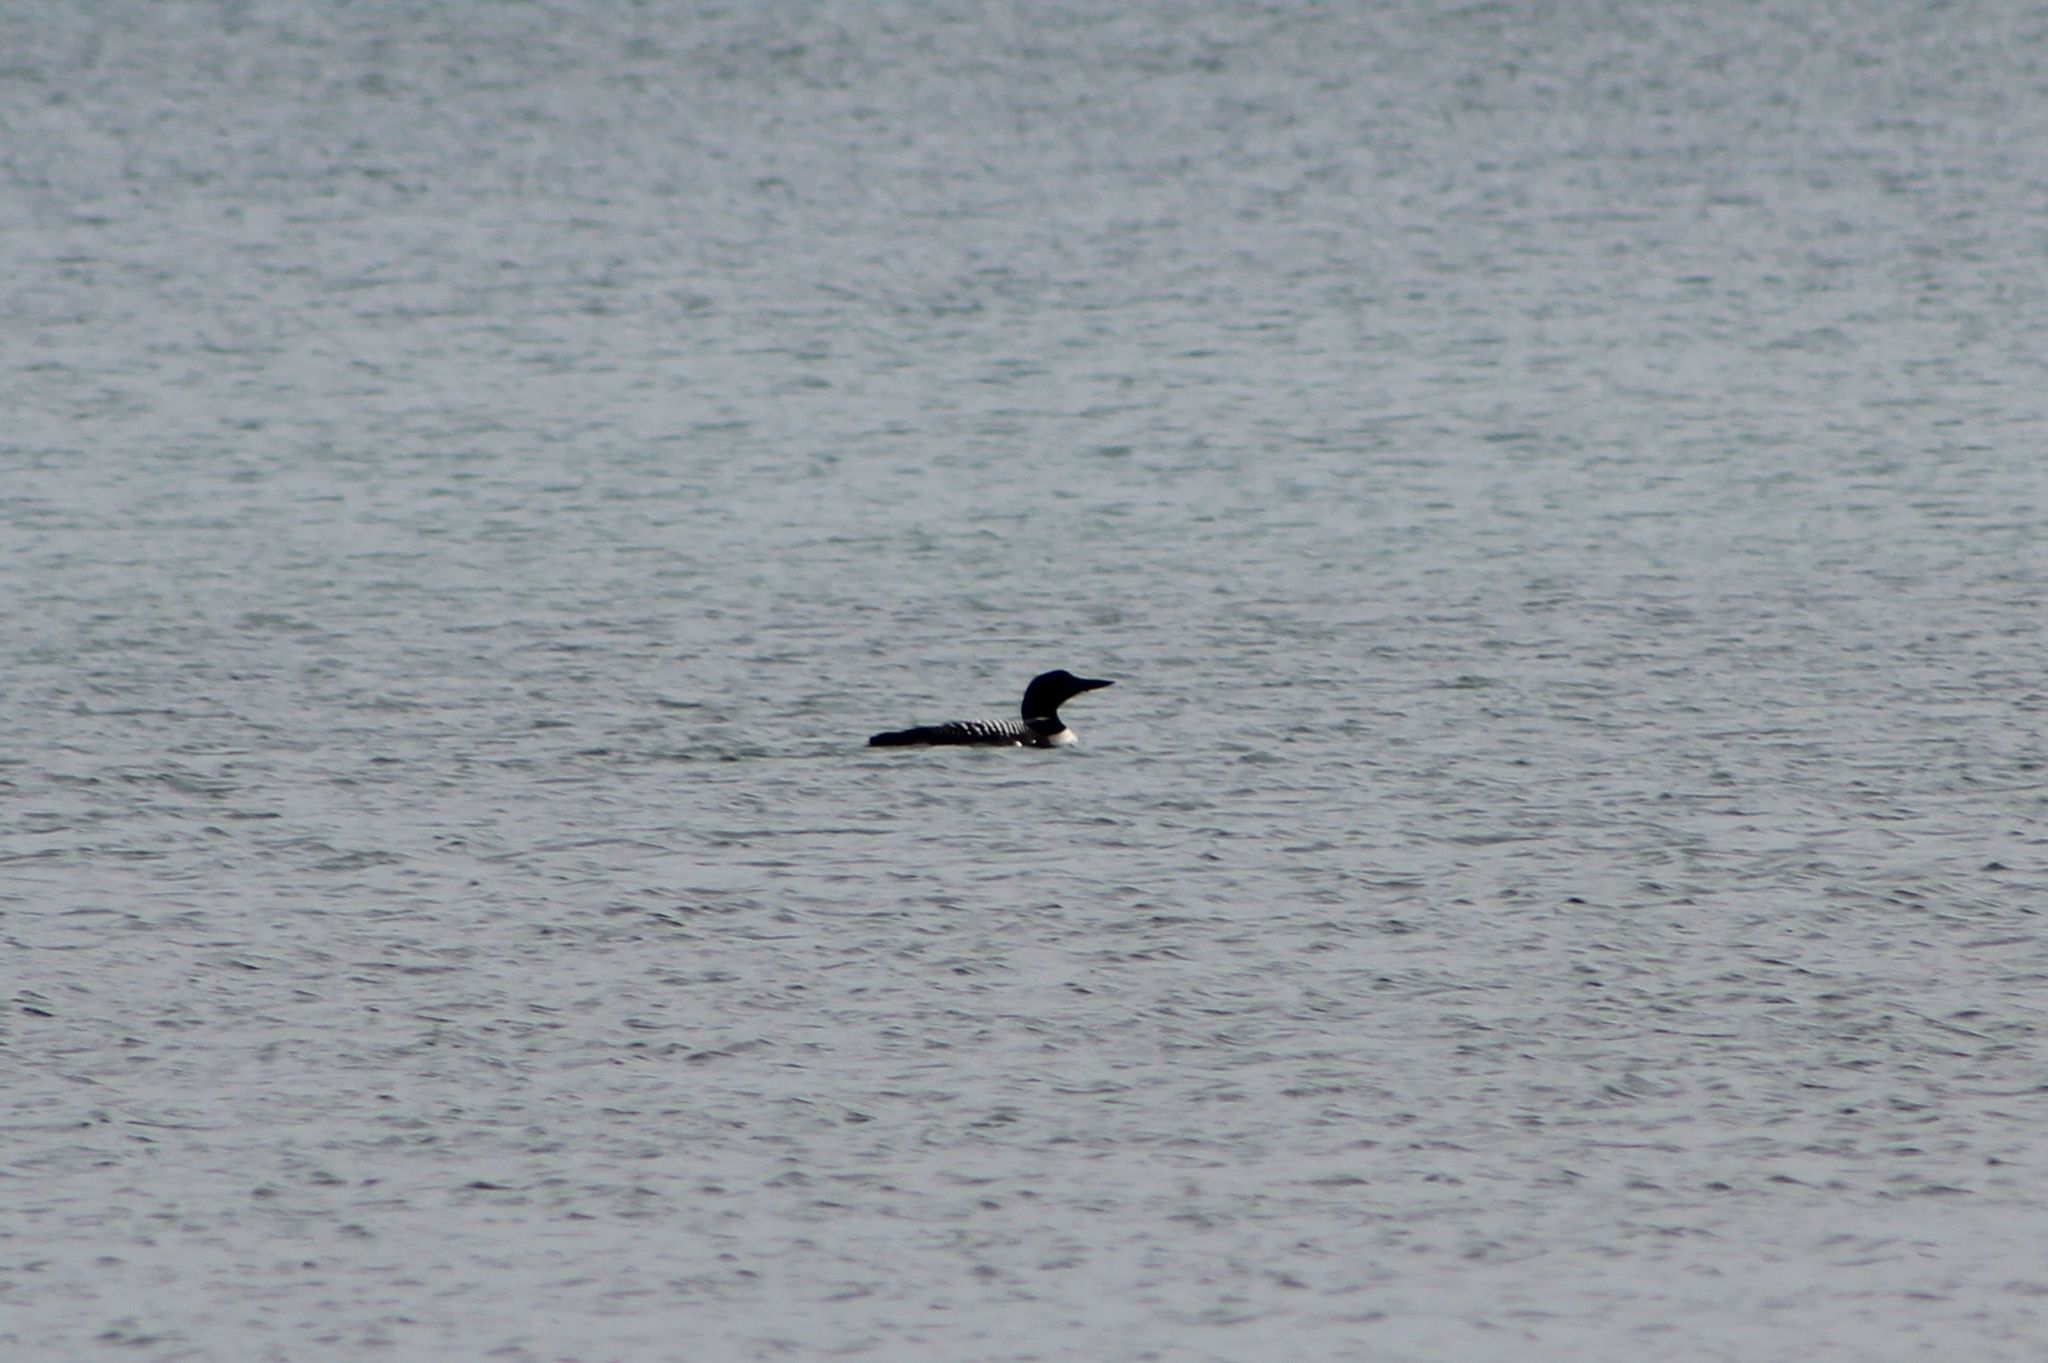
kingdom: Animalia
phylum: Chordata
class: Aves
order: Gaviiformes
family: Gaviidae
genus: Gavia
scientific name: Gavia immer
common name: Common loon
